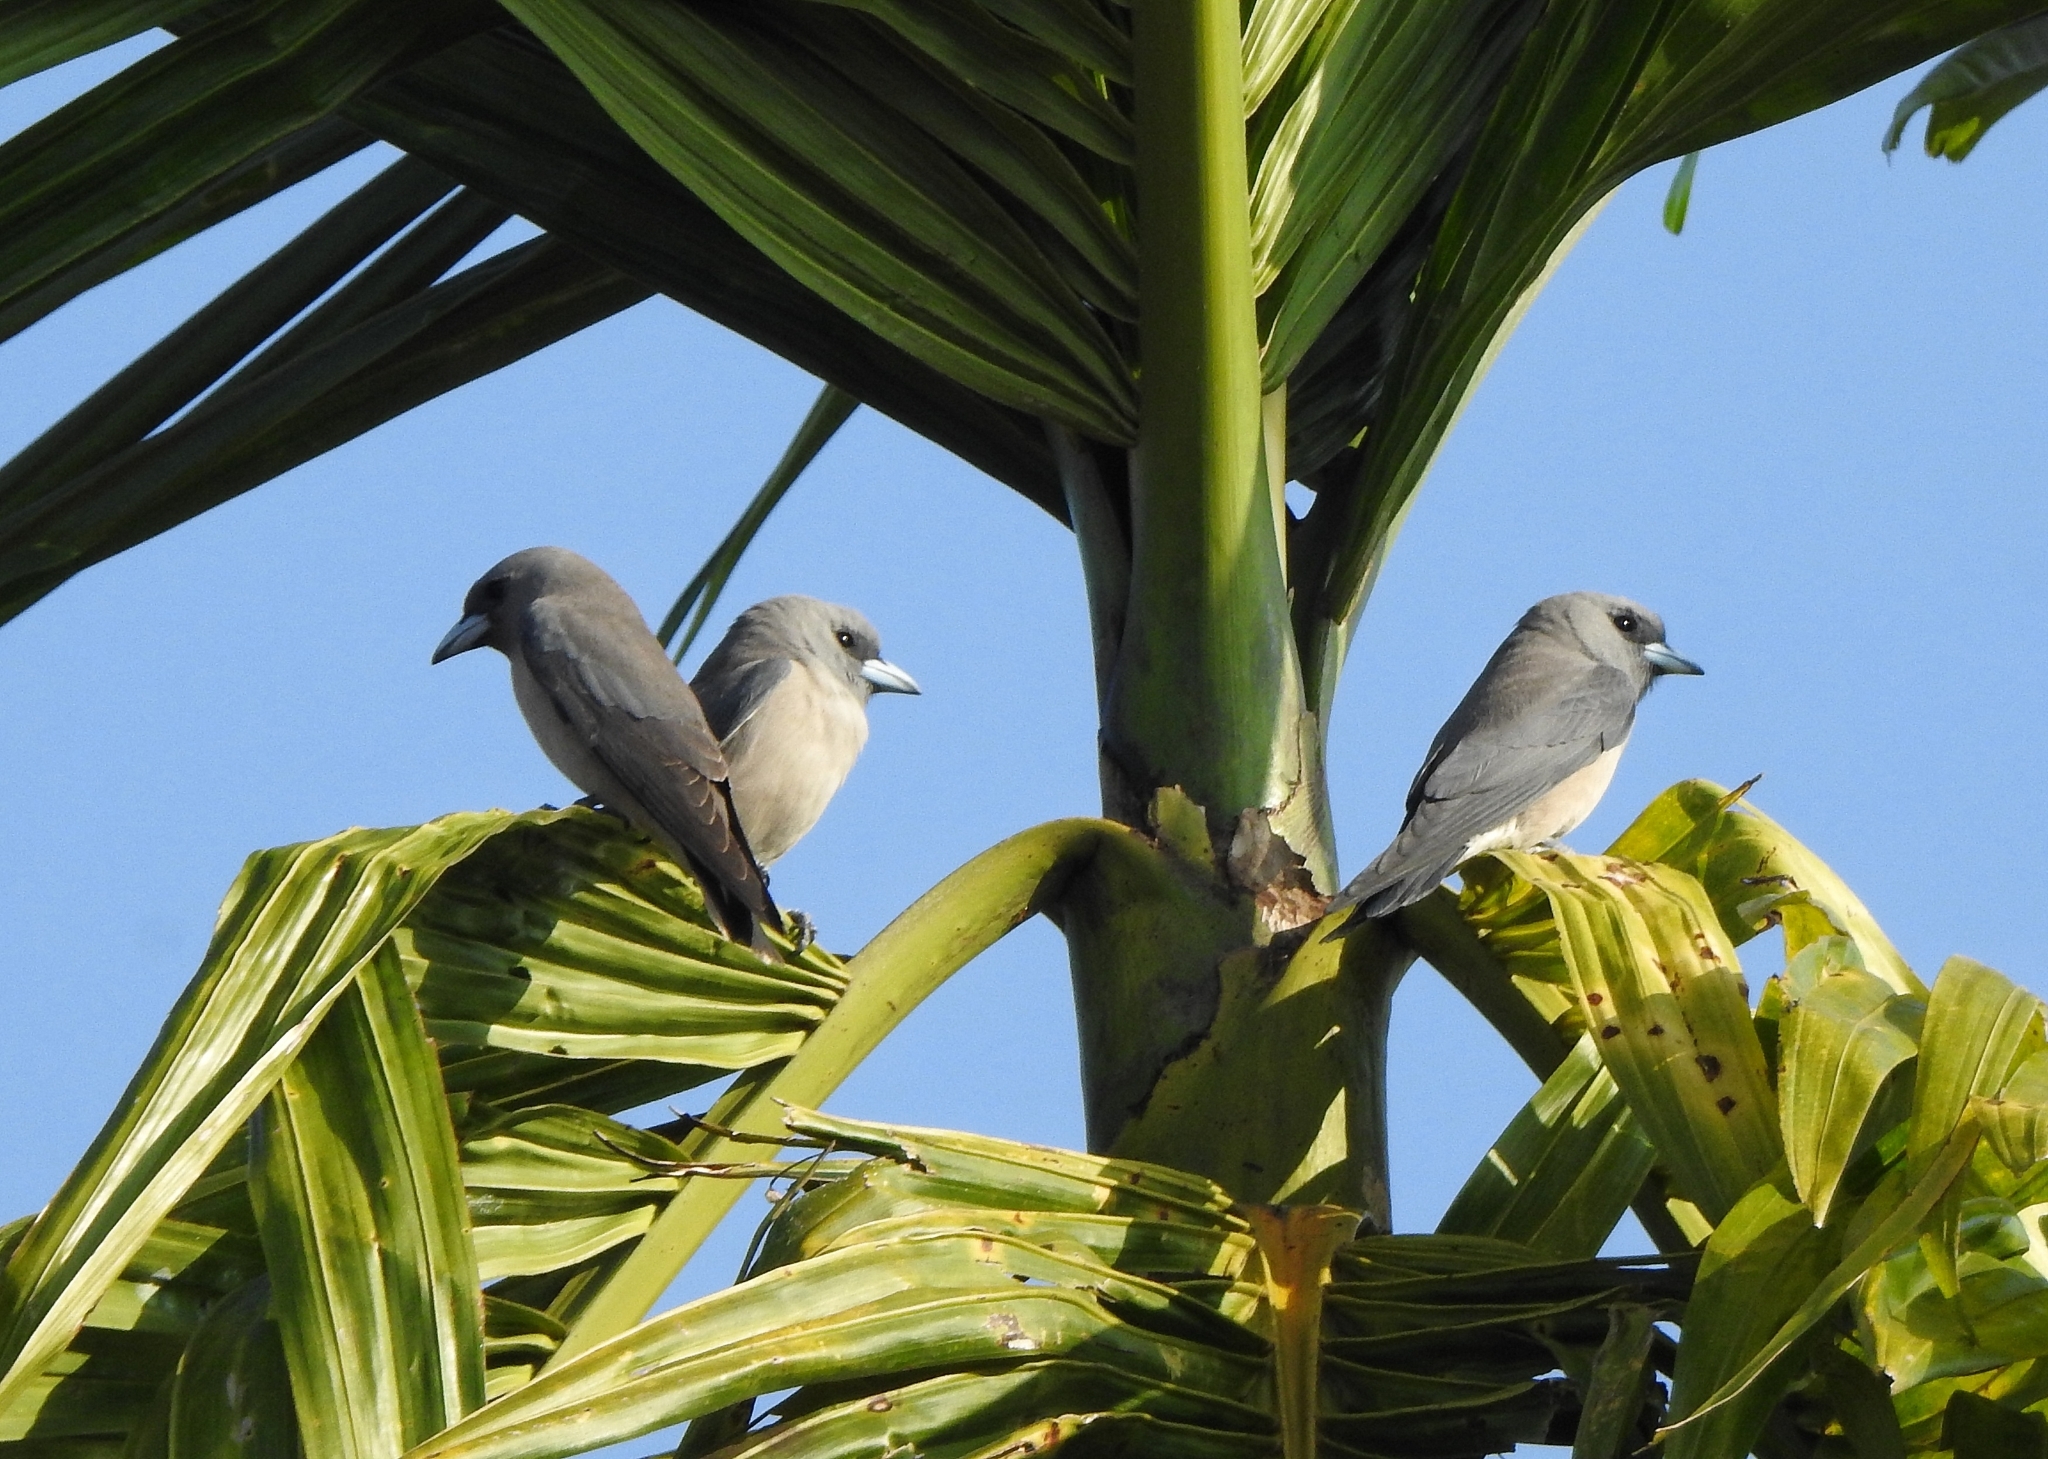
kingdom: Animalia
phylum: Chordata
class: Aves
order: Passeriformes
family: Artamidae
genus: Artamus
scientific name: Artamus fuscus
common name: Ashy woodswallow
